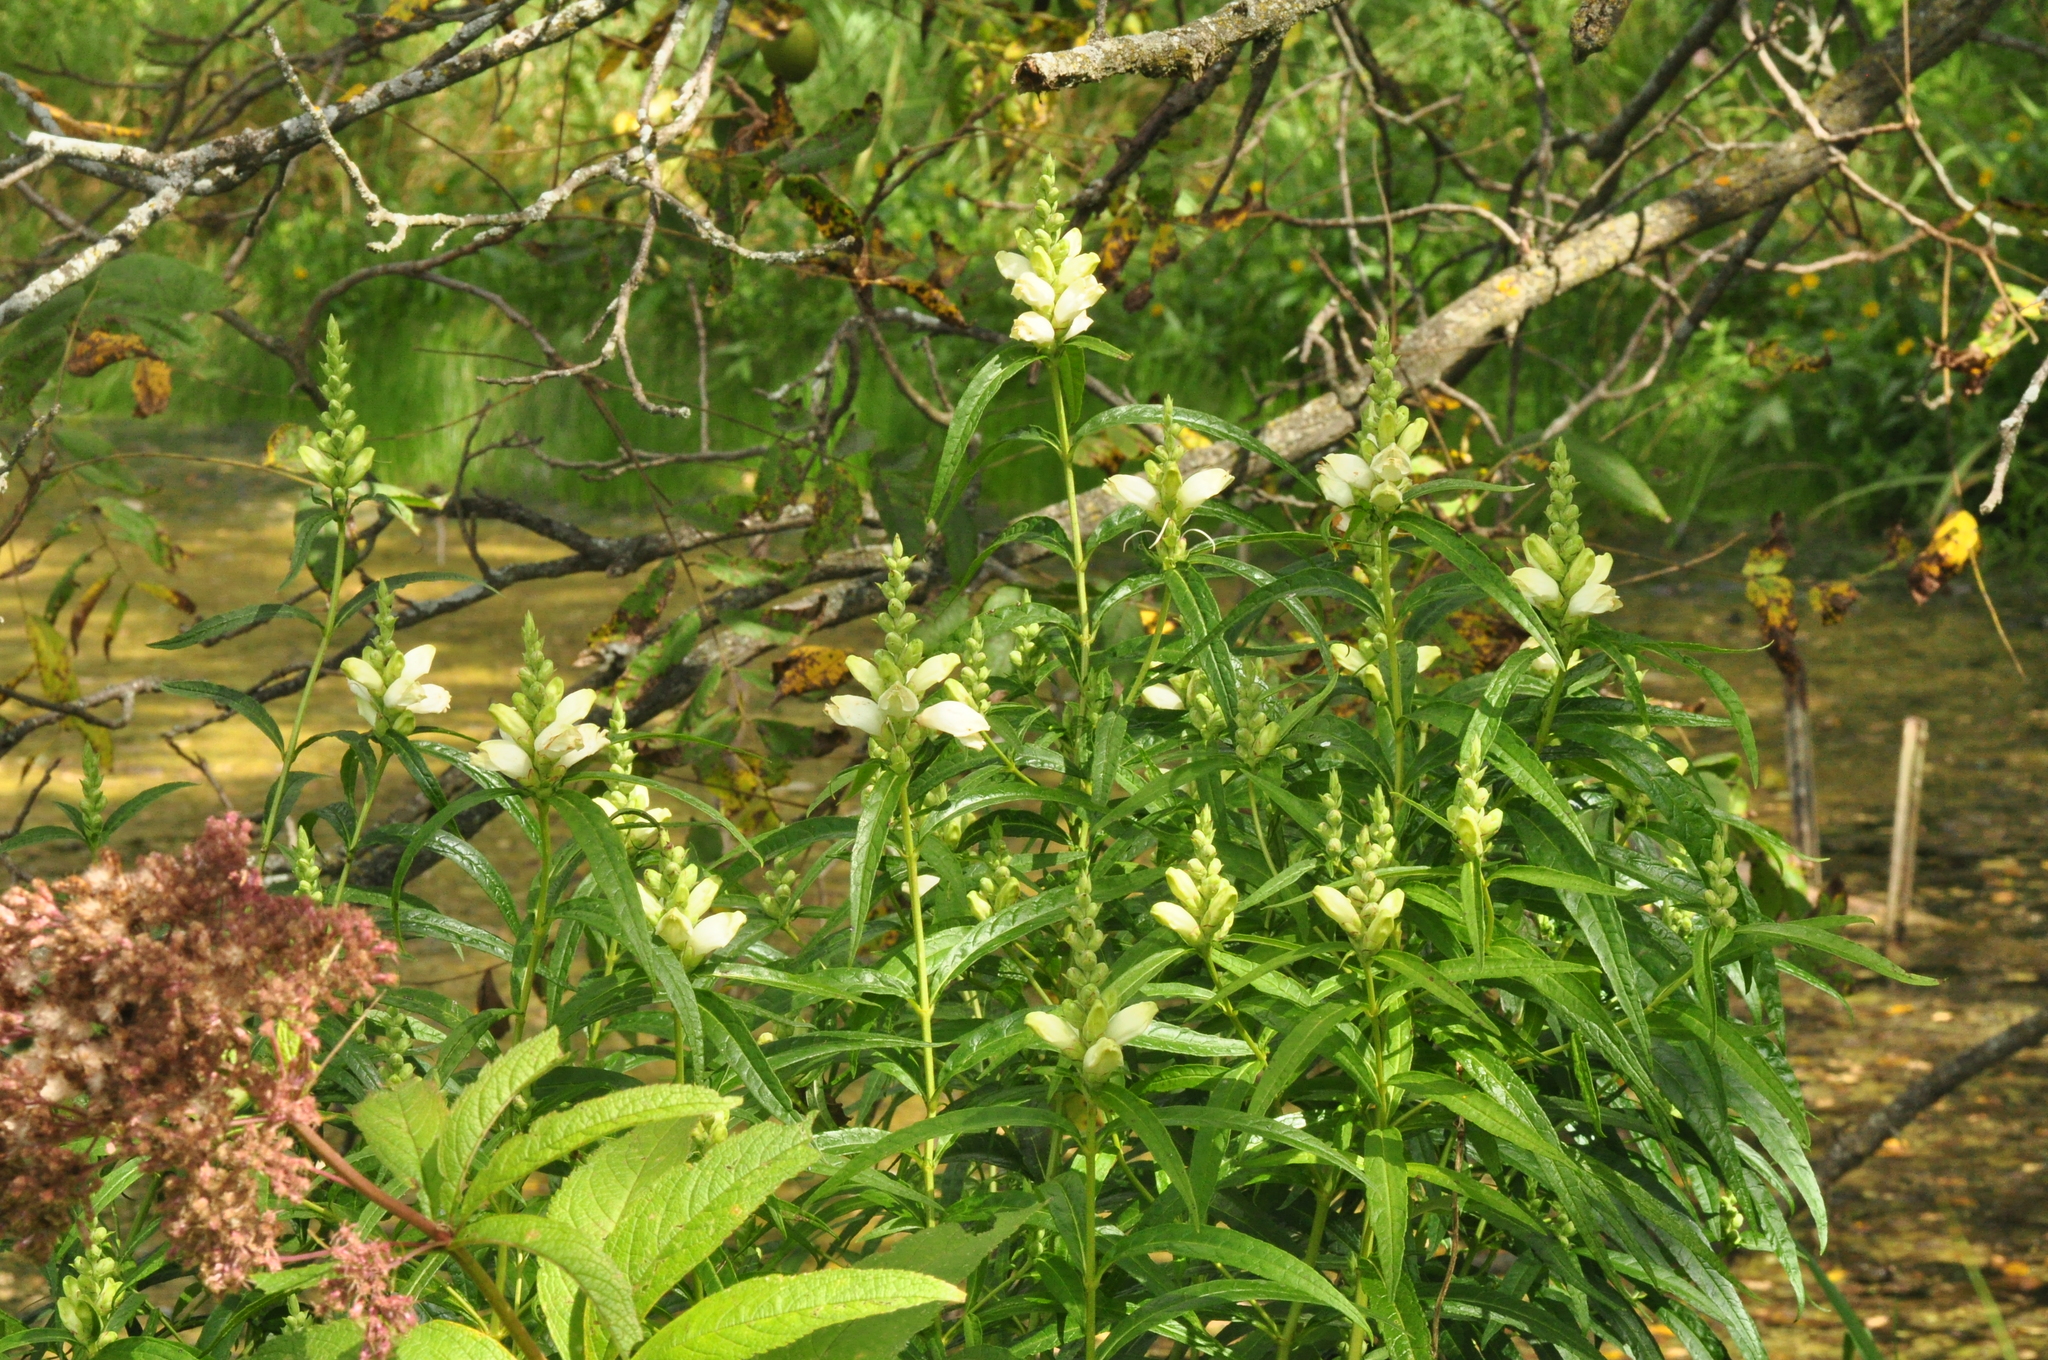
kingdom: Plantae
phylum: Tracheophyta
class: Magnoliopsida
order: Lamiales
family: Plantaginaceae
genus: Chelone
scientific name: Chelone glabra
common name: Snakehead
